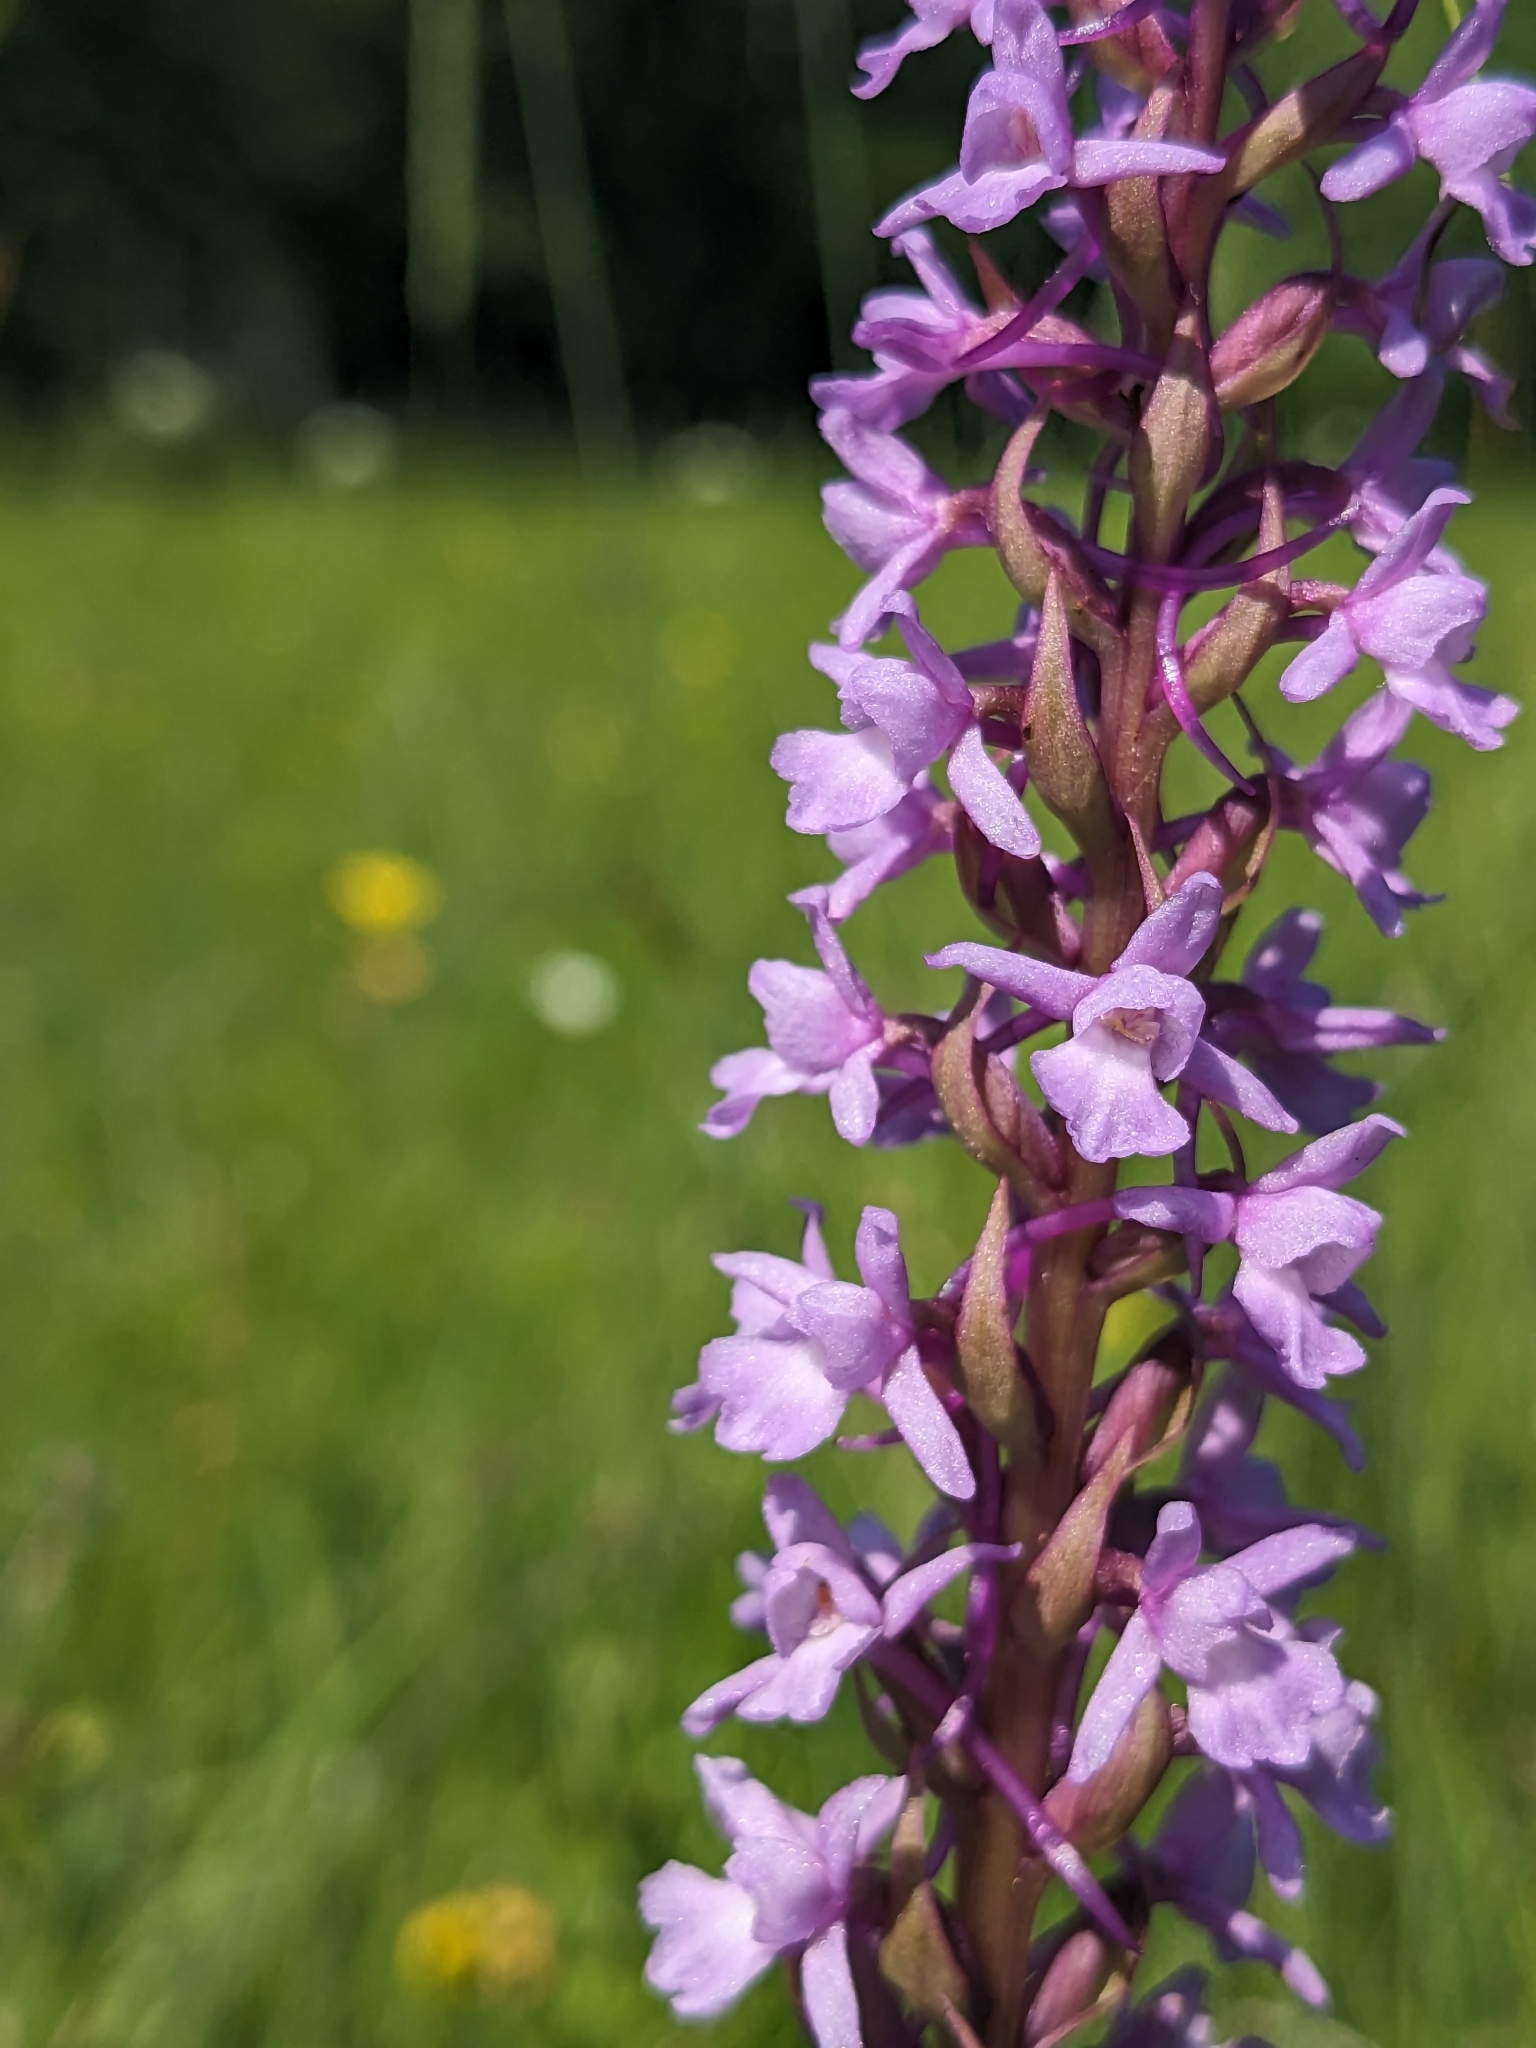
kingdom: Plantae
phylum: Tracheophyta
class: Liliopsida
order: Asparagales
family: Orchidaceae
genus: Gymnadenia
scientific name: Gymnadenia conopsea
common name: Fragrant orchid
